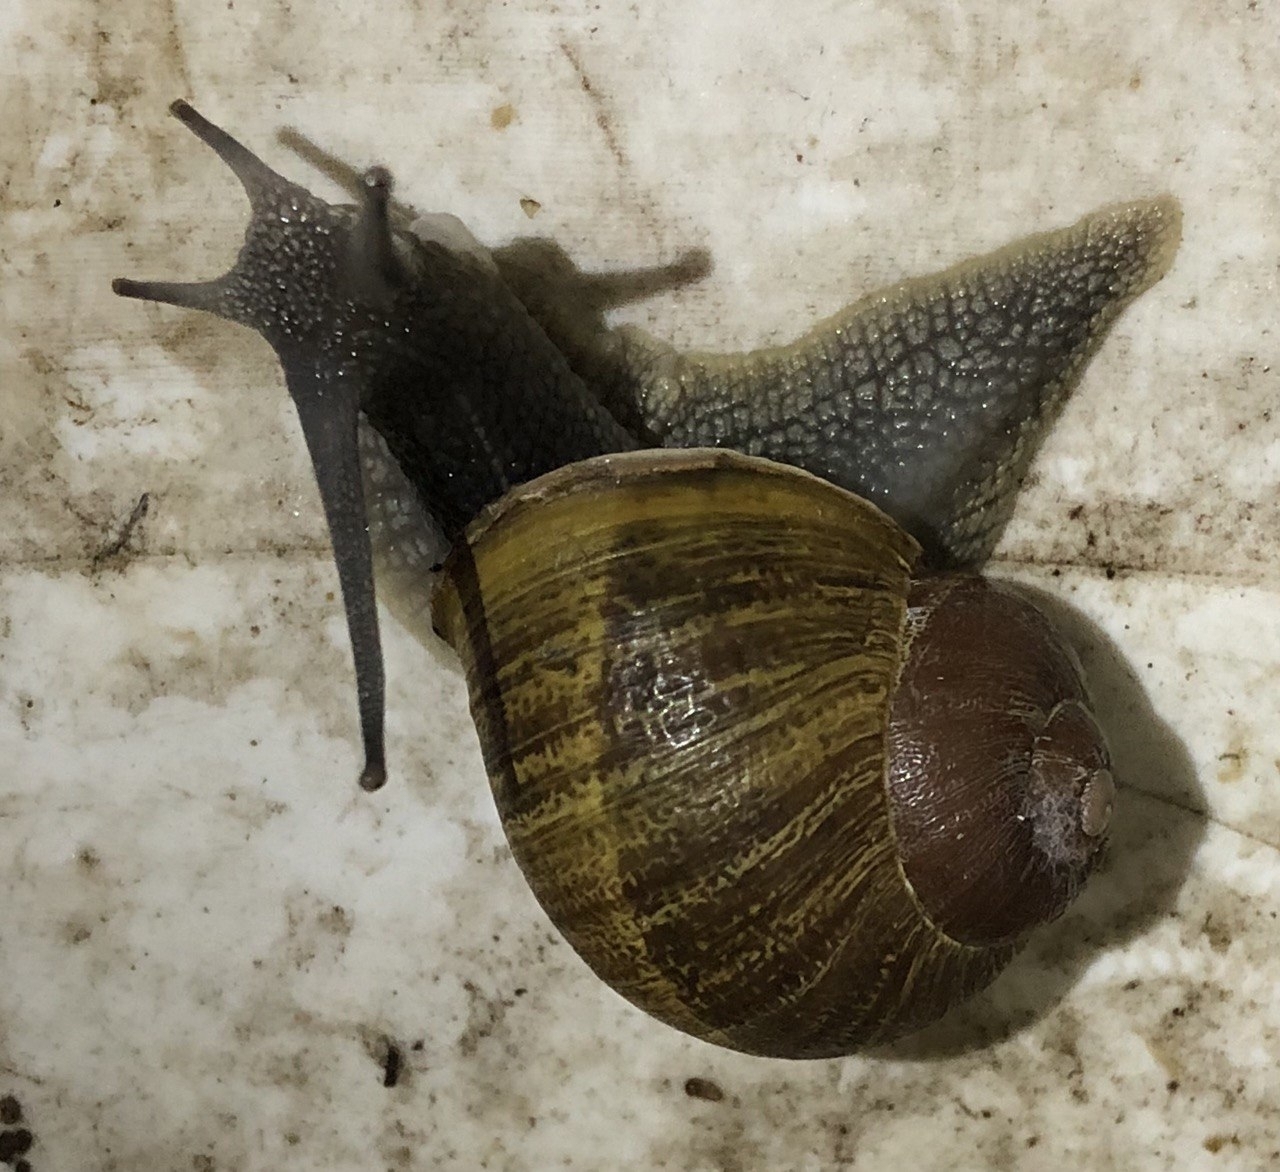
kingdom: Animalia
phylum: Mollusca
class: Gastropoda
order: Stylommatophora
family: Helicidae
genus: Cornu
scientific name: Cornu aspersum
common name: Brown garden snail
